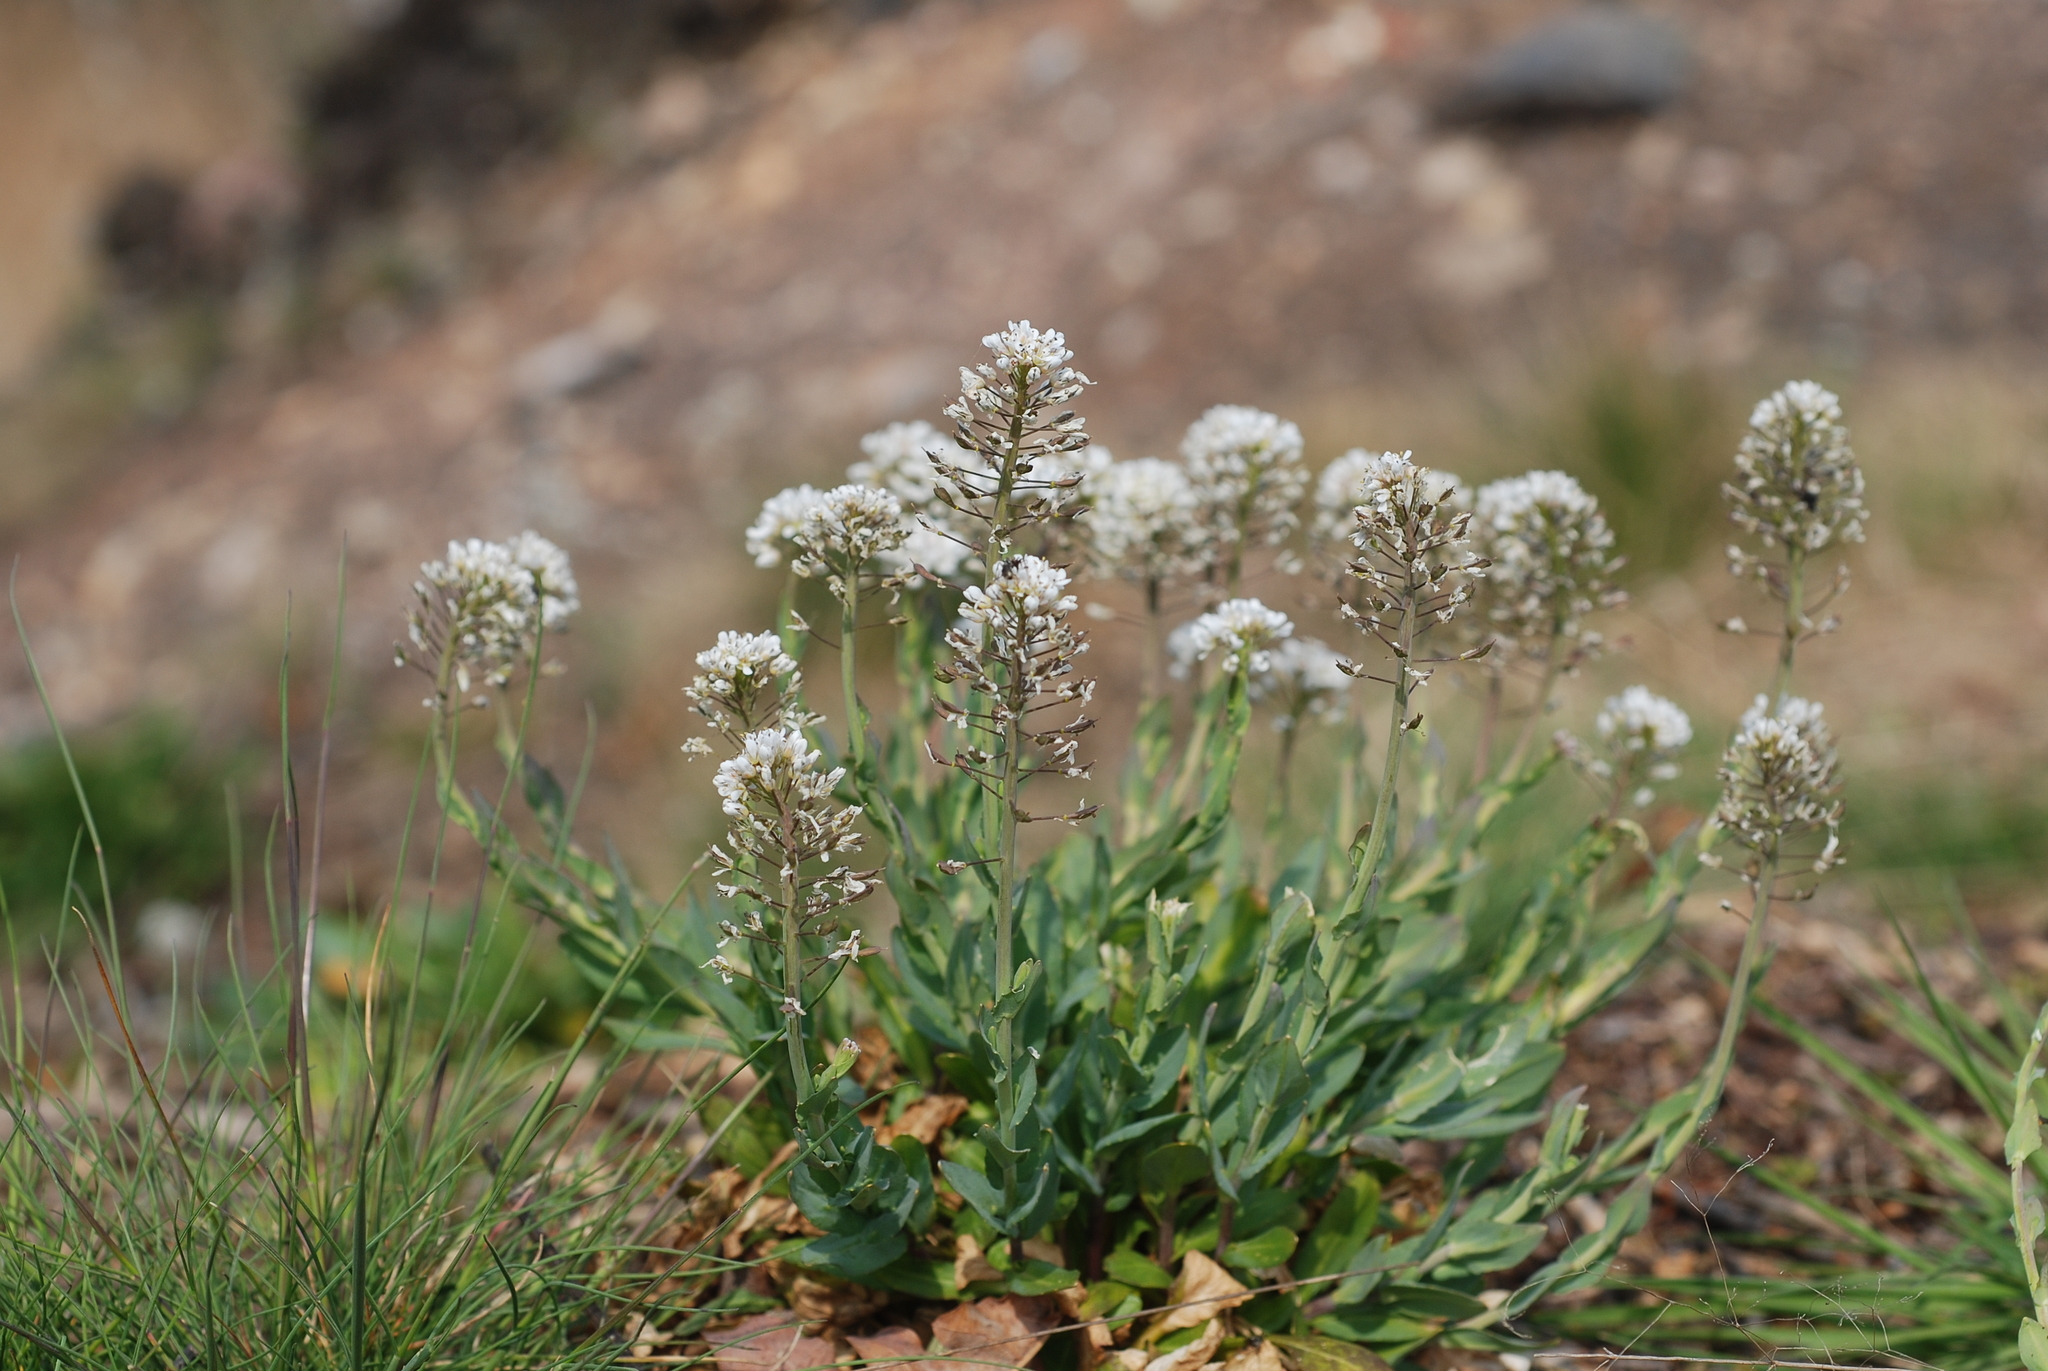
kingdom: Plantae
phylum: Tracheophyta
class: Magnoliopsida
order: Brassicales
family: Brassicaceae
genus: Noccaea
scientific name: Noccaea caerulescens
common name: Alpine pennycress
